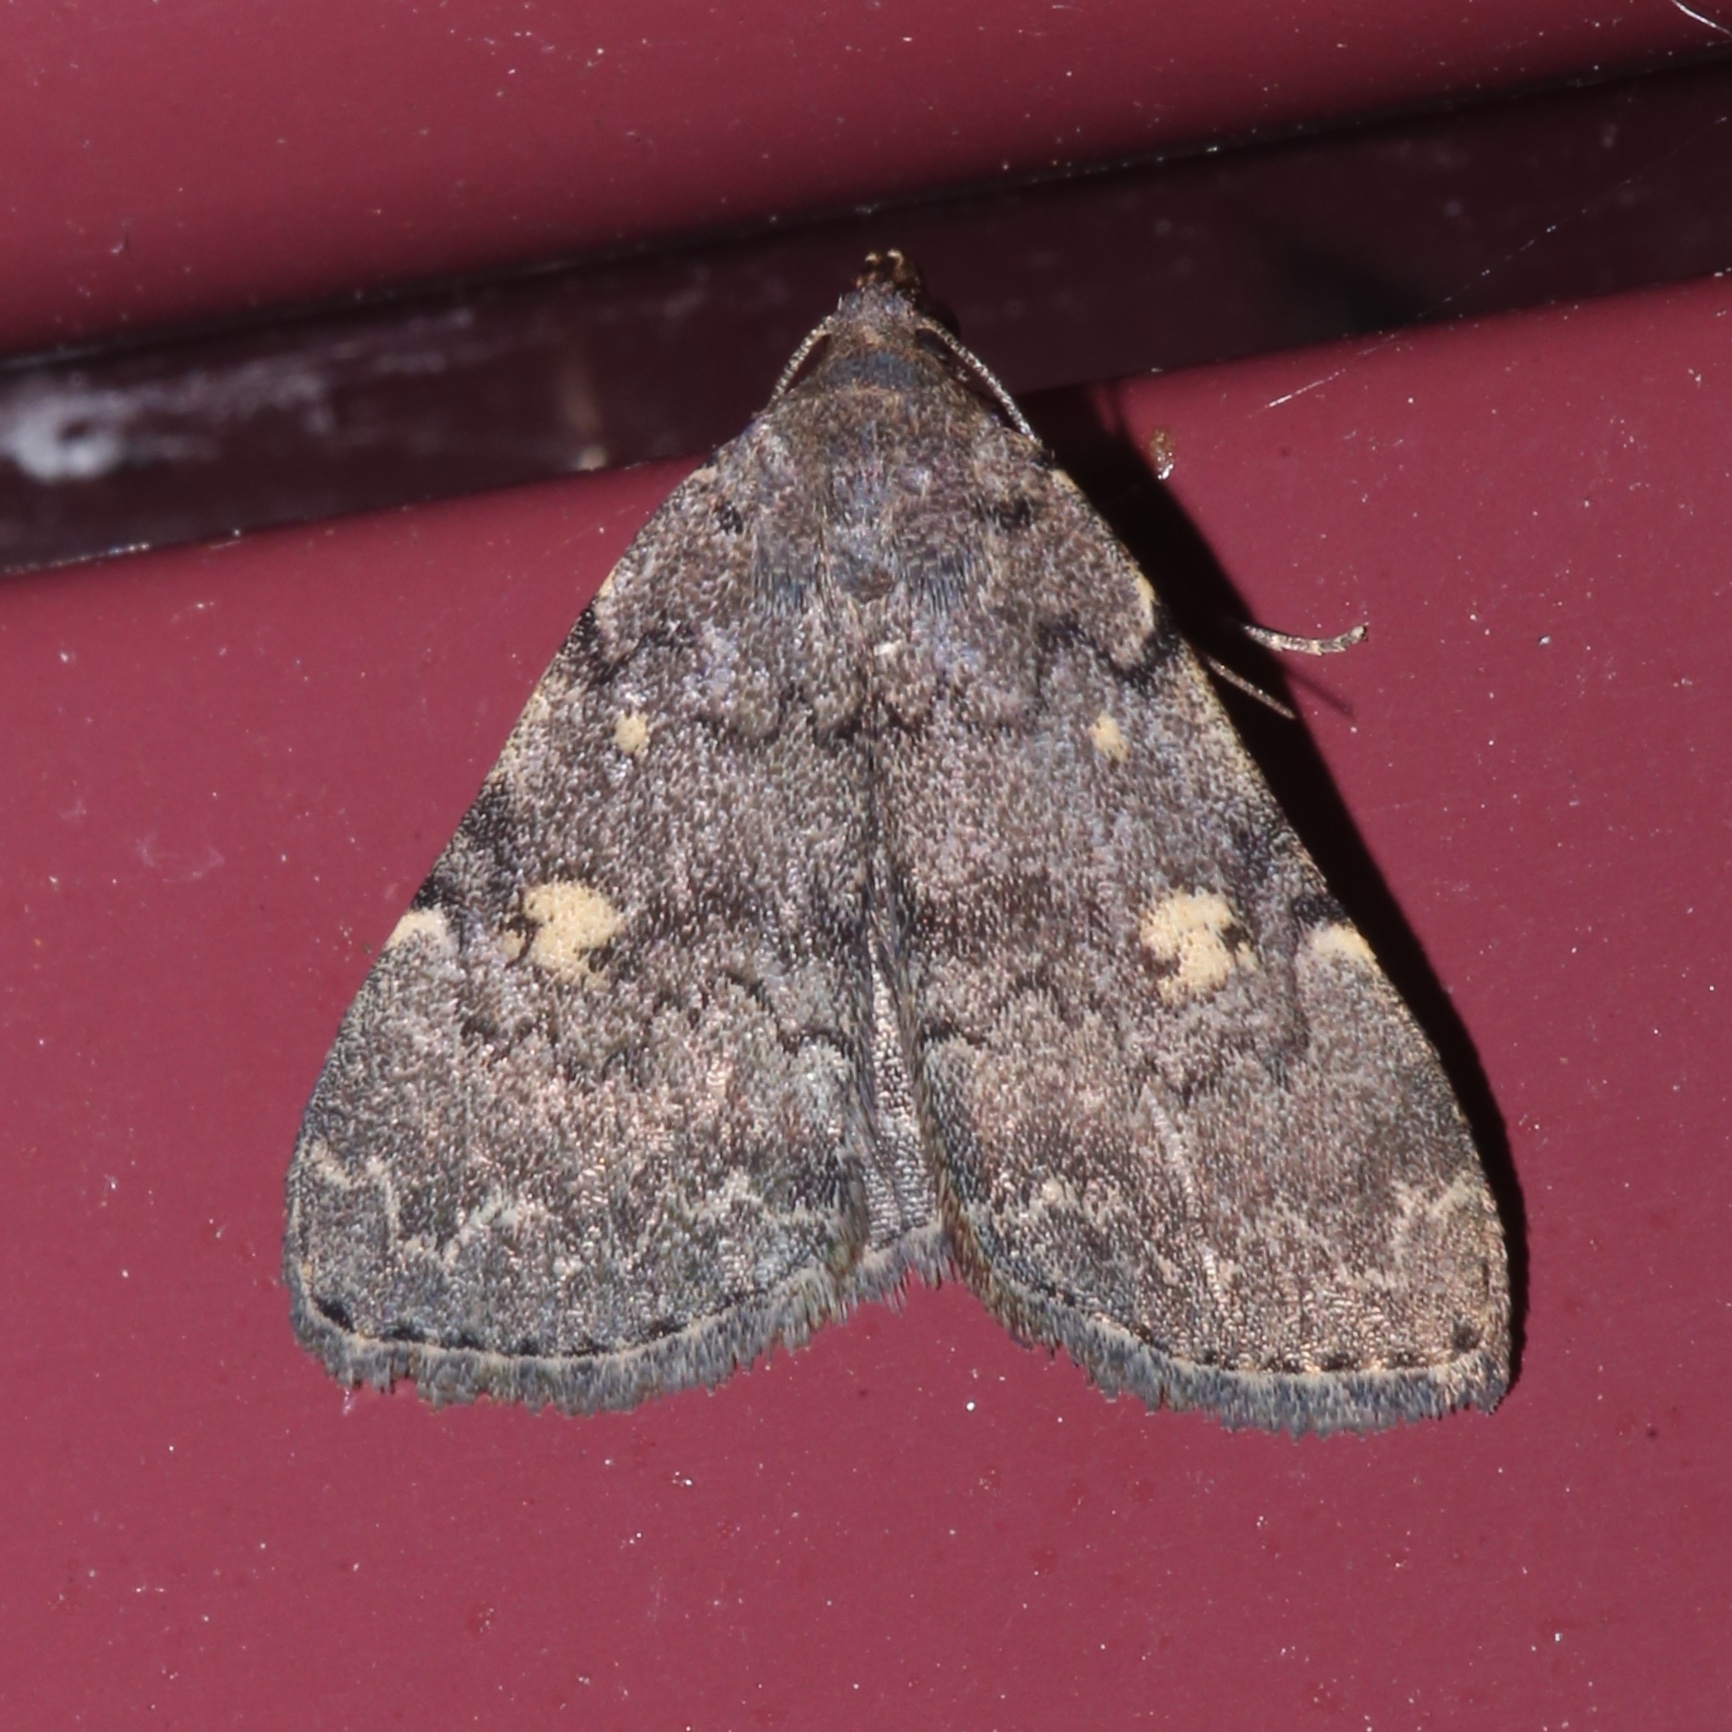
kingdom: Animalia
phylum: Arthropoda
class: Insecta
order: Lepidoptera
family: Erebidae
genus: Idia
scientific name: Idia aemula
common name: Common idia moth
